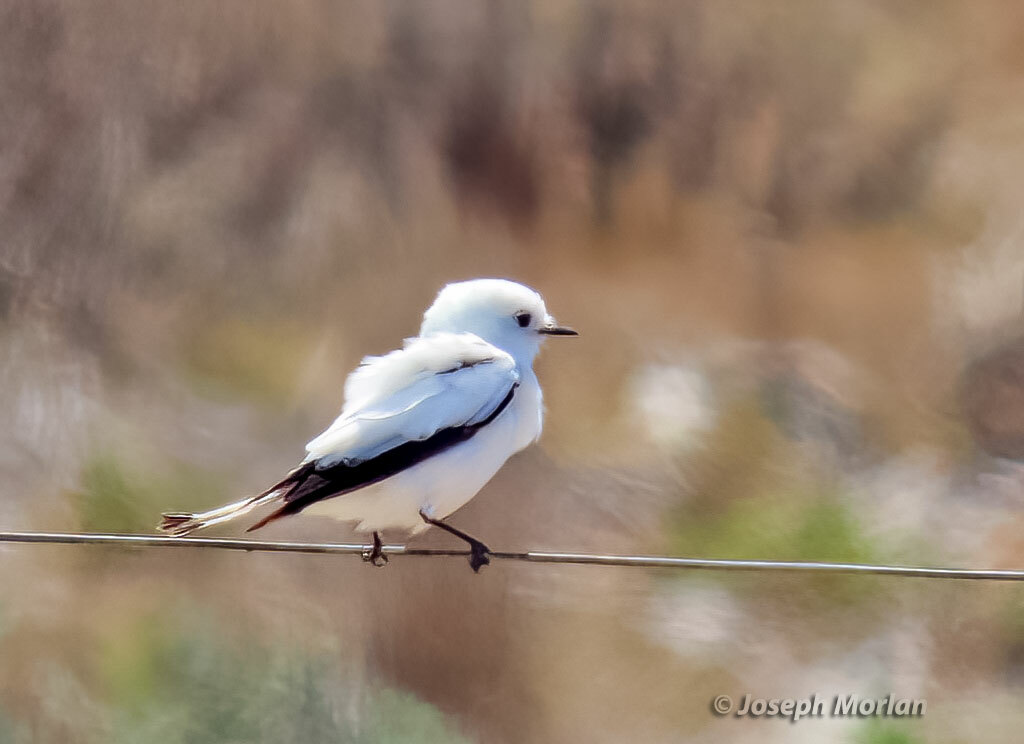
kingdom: Animalia
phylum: Chordata
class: Aves
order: Passeriformes
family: Tyrannidae
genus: Xolmis
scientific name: Xolmis irupero
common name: White monjita
